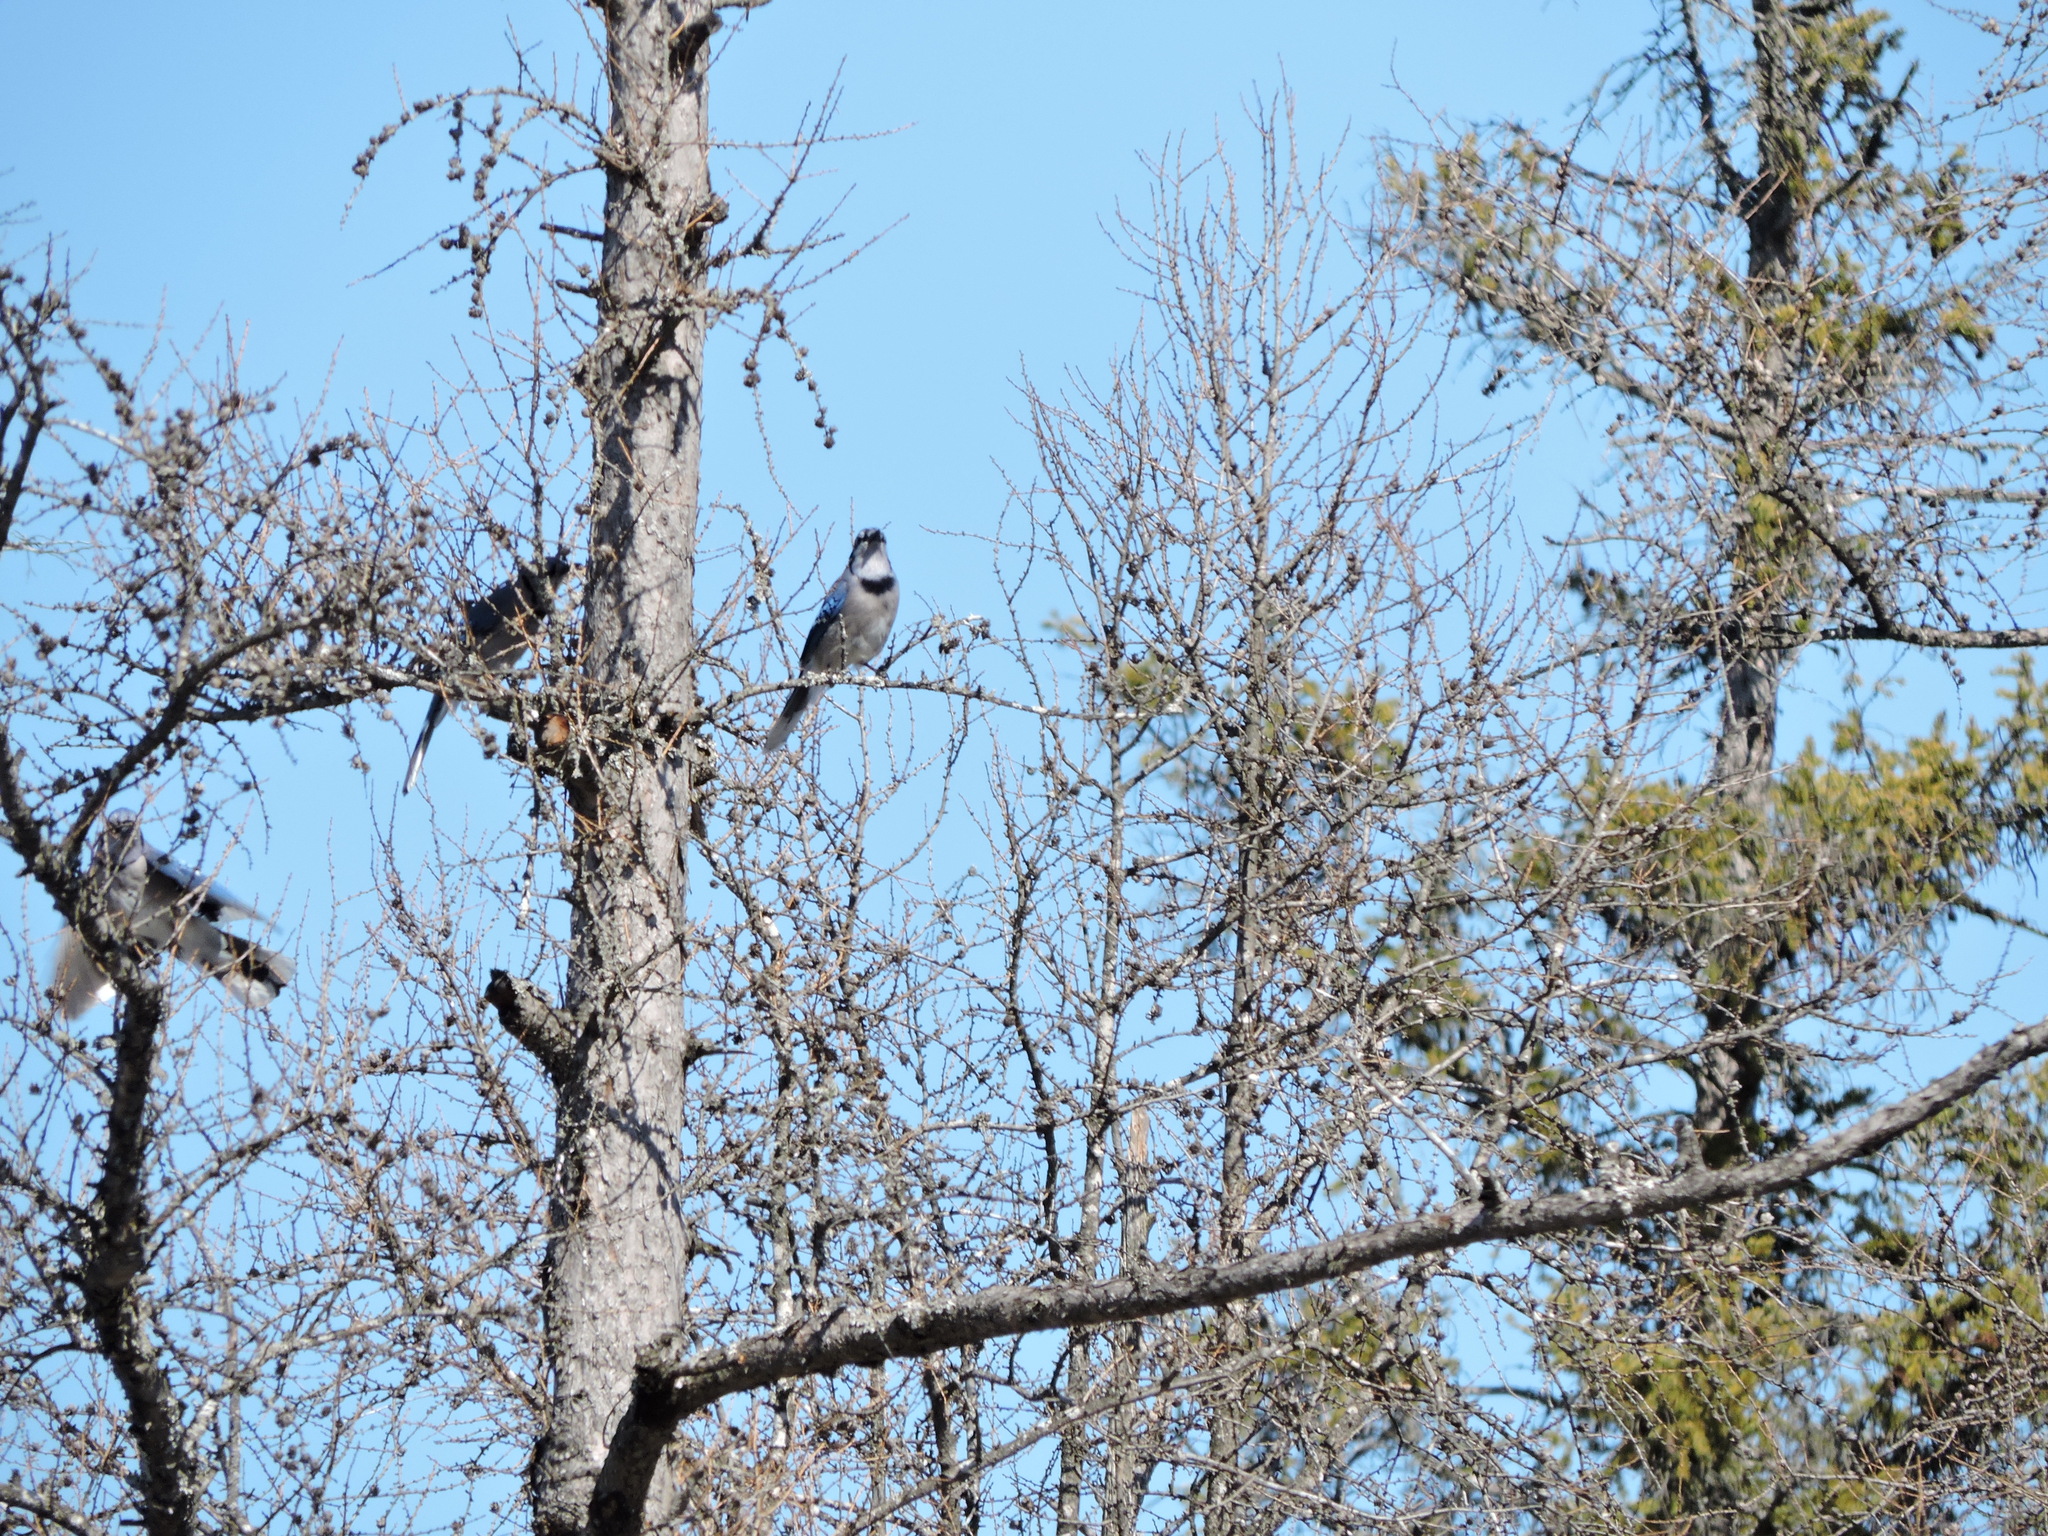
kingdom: Animalia
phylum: Chordata
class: Aves
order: Passeriformes
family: Corvidae
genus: Cyanocitta
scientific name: Cyanocitta cristata
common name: Blue jay
